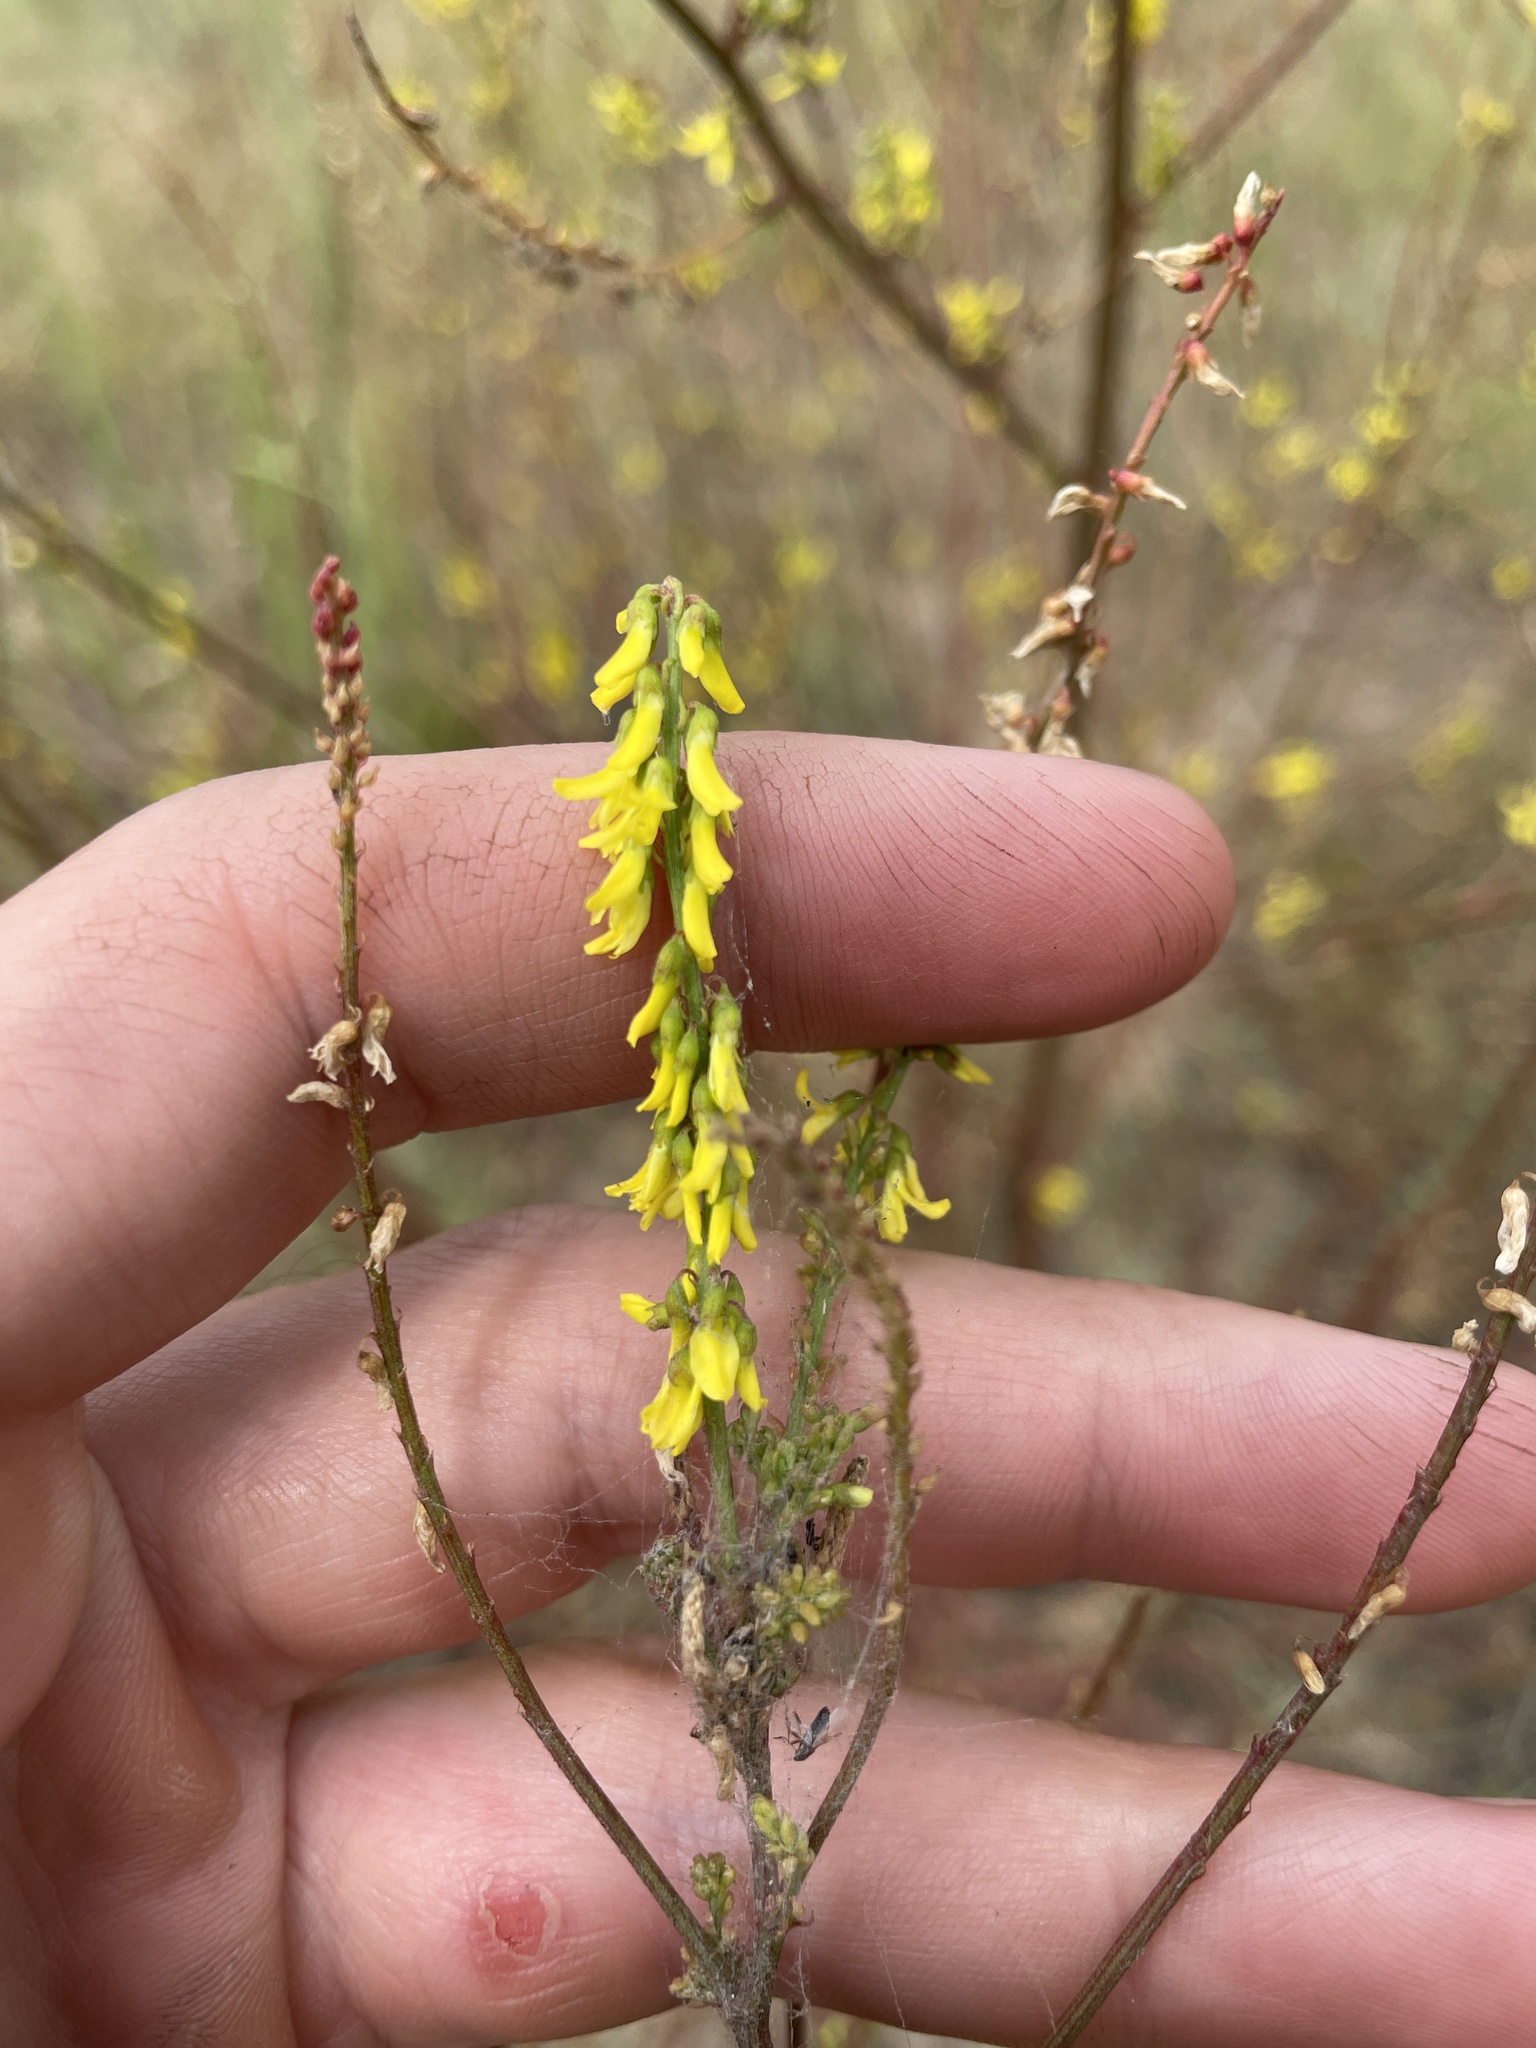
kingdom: Plantae
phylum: Tracheophyta
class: Magnoliopsida
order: Fabales
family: Fabaceae
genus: Melilotus
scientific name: Melilotus officinalis
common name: Sweetclover
